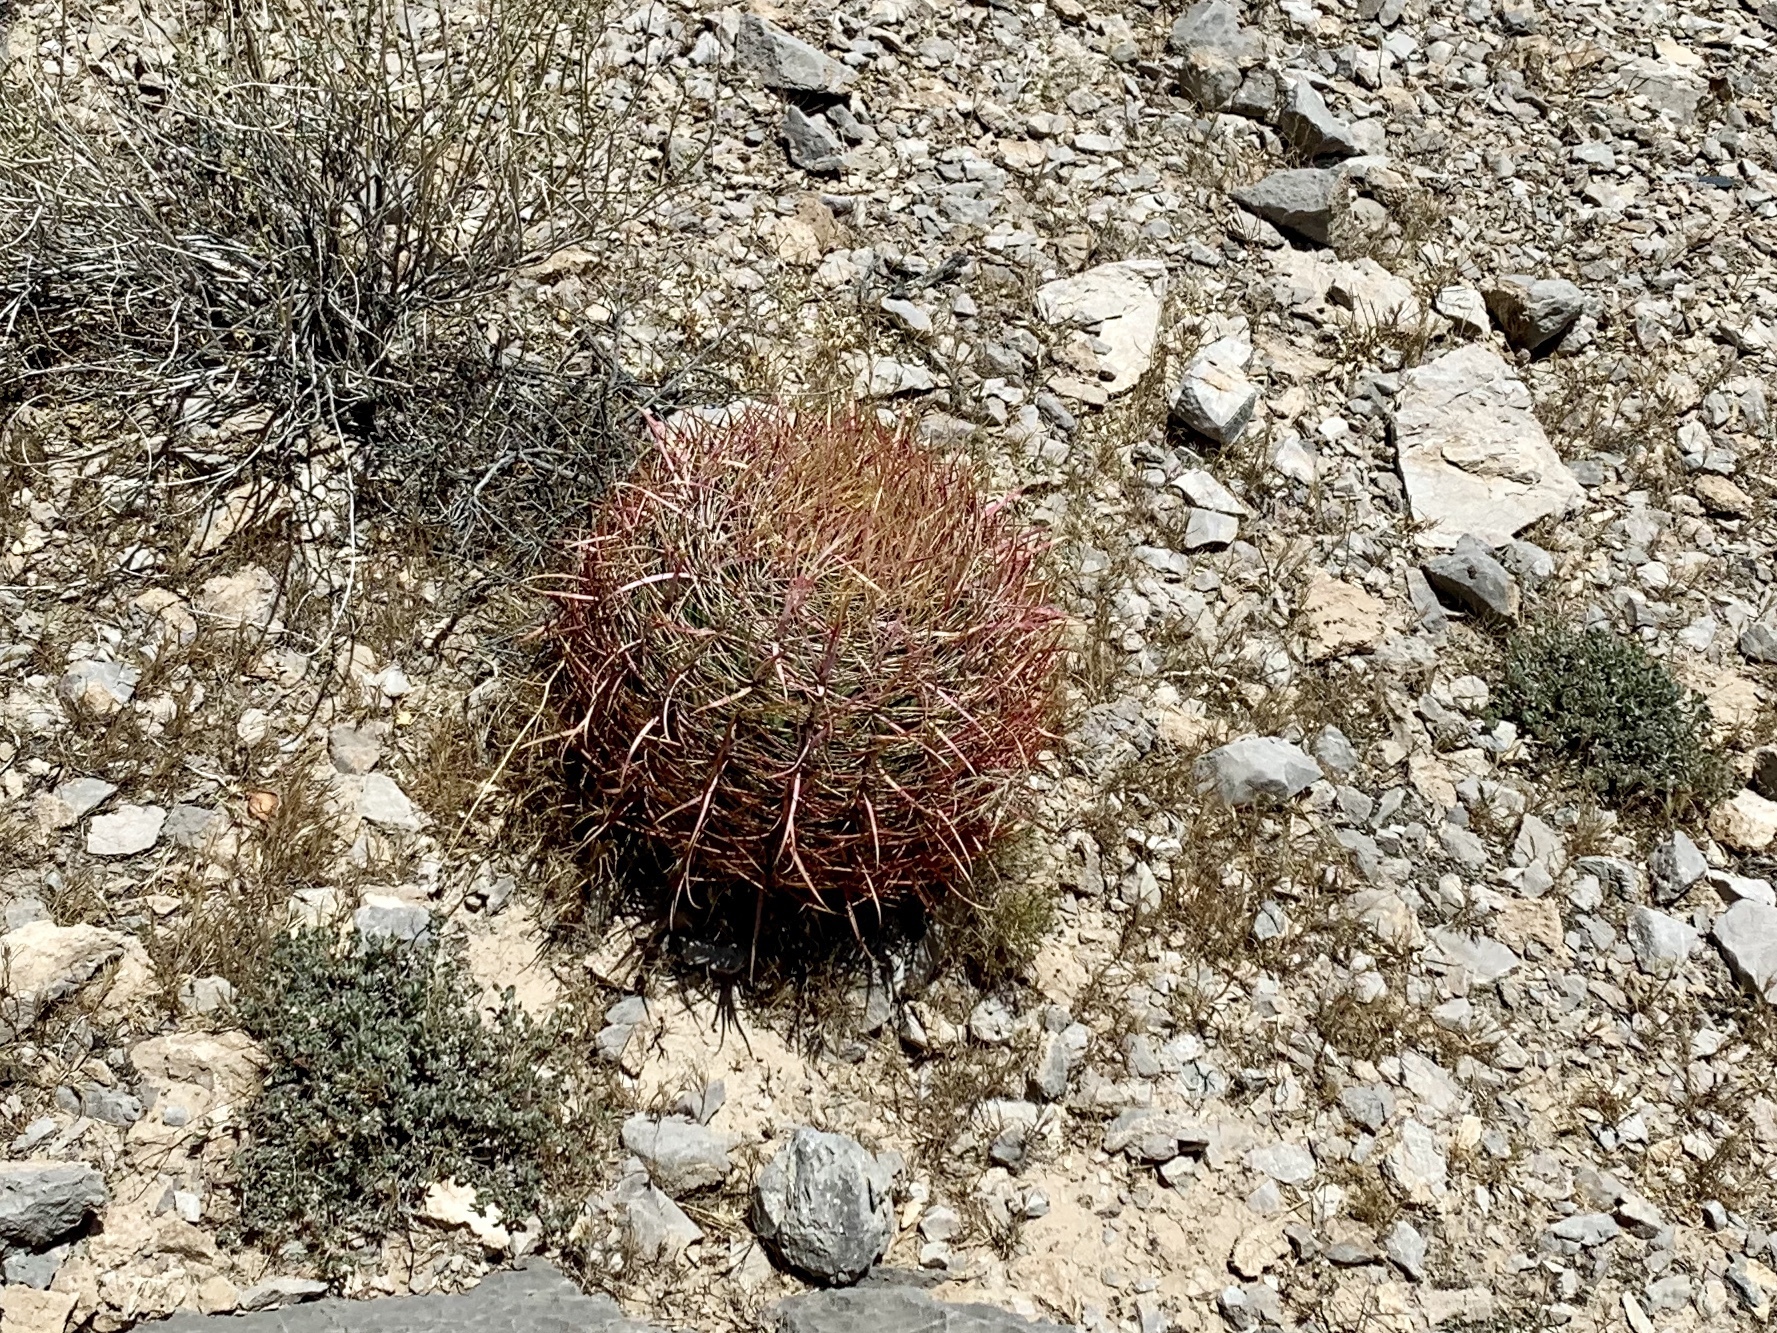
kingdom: Plantae
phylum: Tracheophyta
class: Magnoliopsida
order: Caryophyllales
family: Cactaceae
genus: Ferocactus
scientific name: Ferocactus cylindraceus
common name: California barrel cactus
